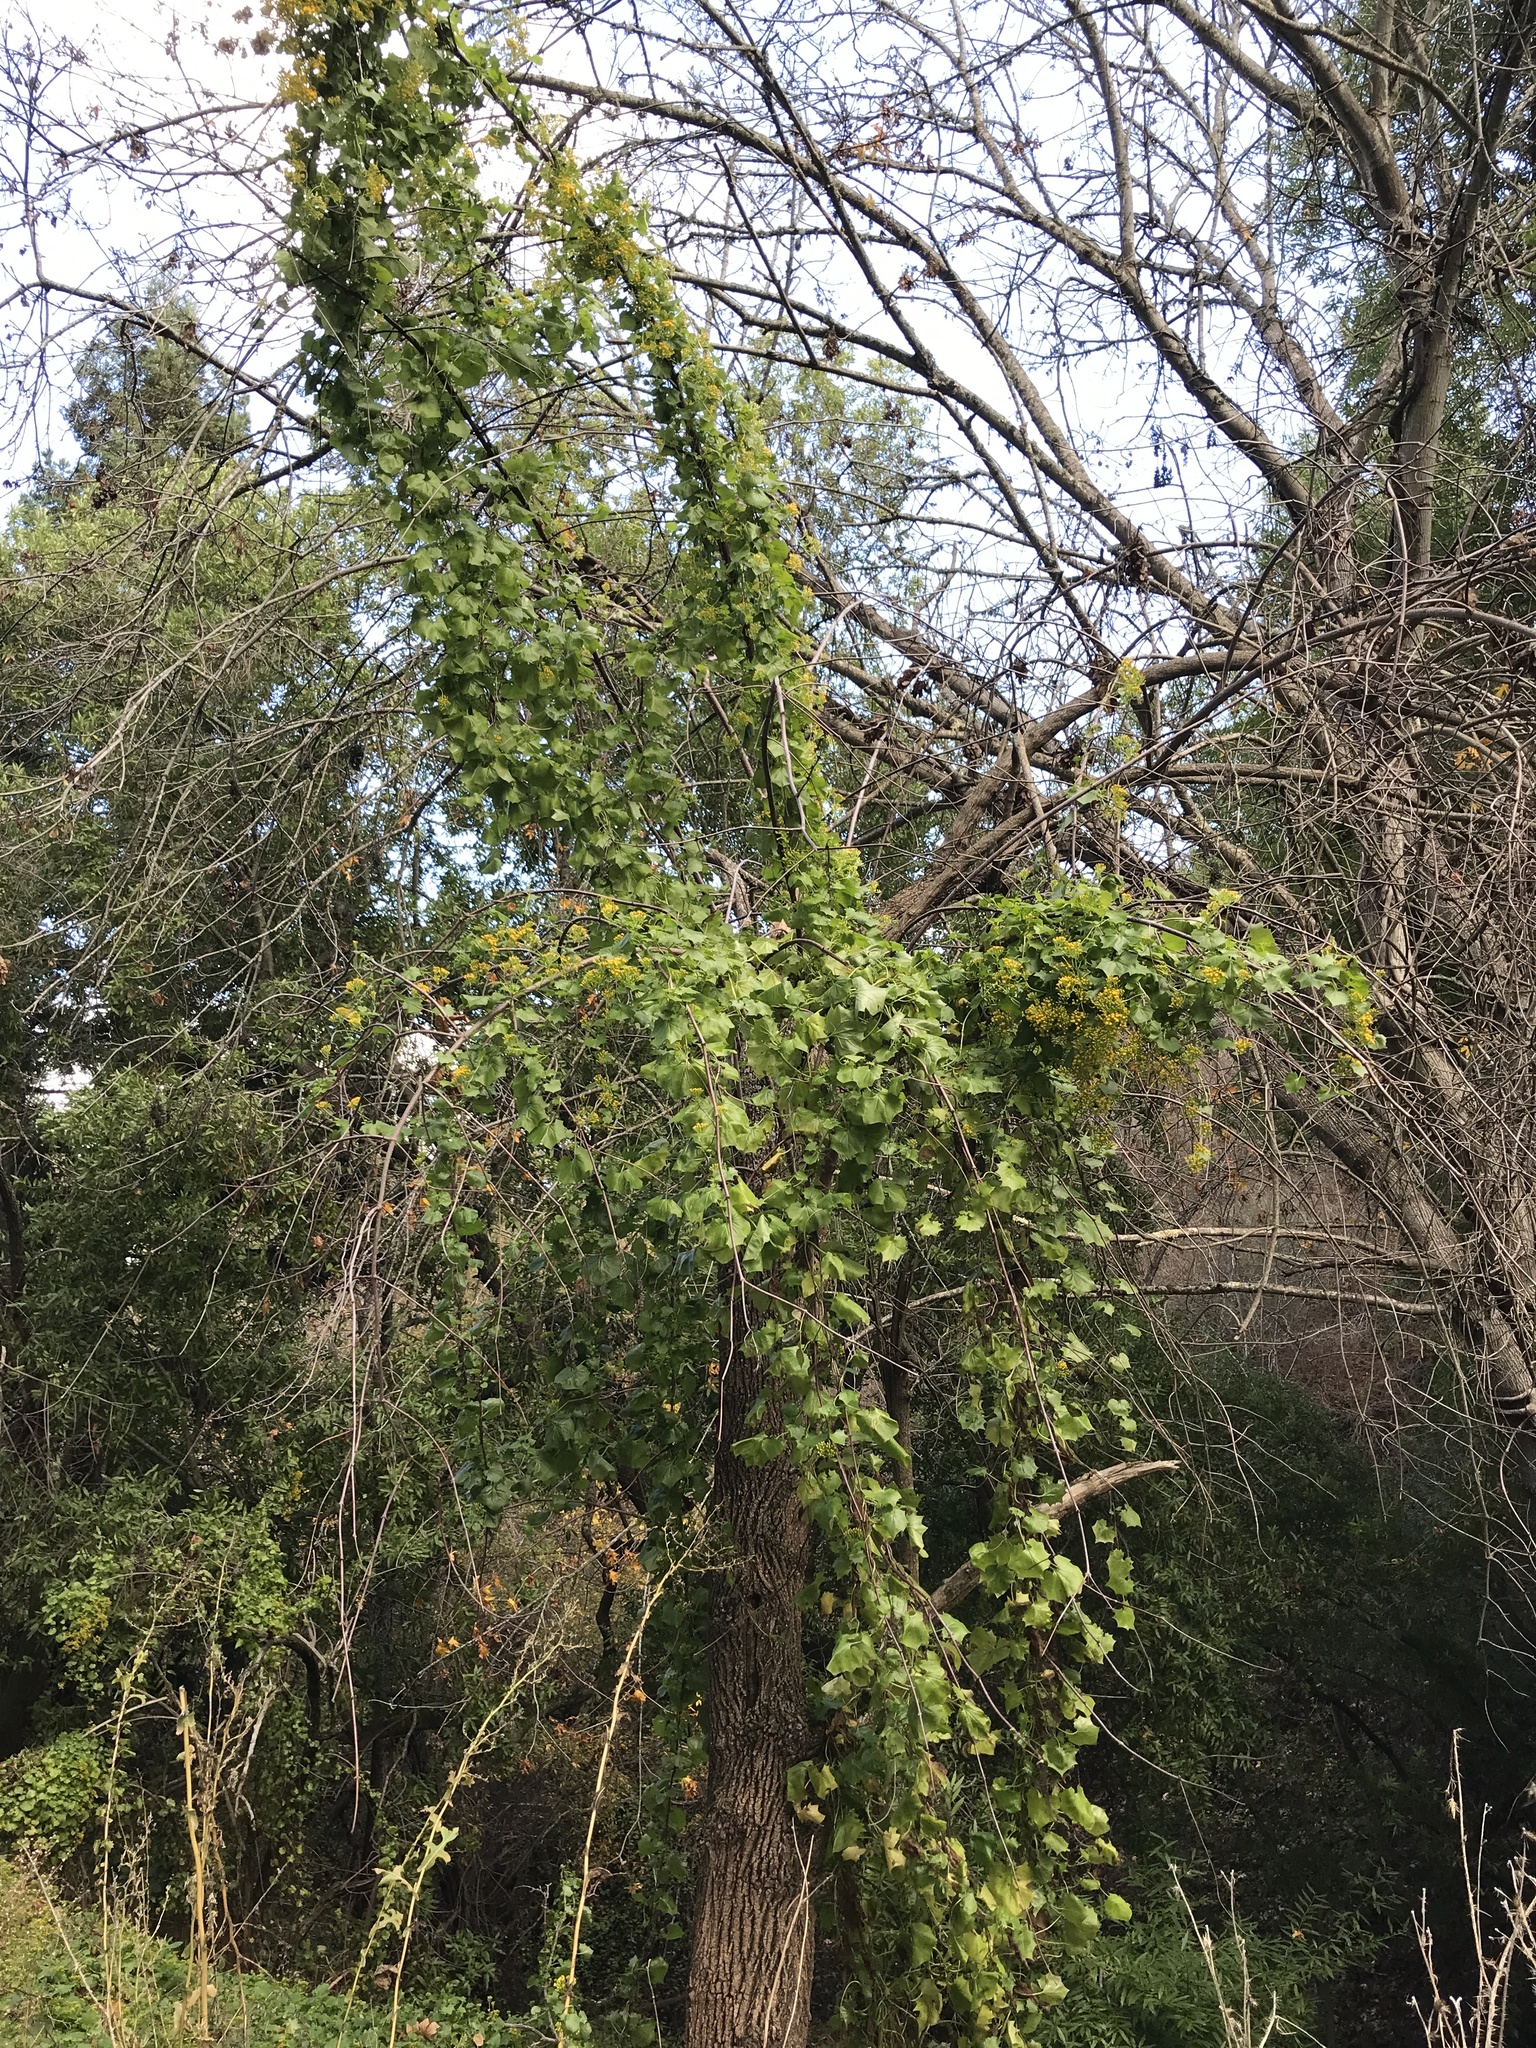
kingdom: Plantae
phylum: Tracheophyta
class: Magnoliopsida
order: Asterales
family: Asteraceae
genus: Delairea
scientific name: Delairea odorata
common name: Cape-ivy
